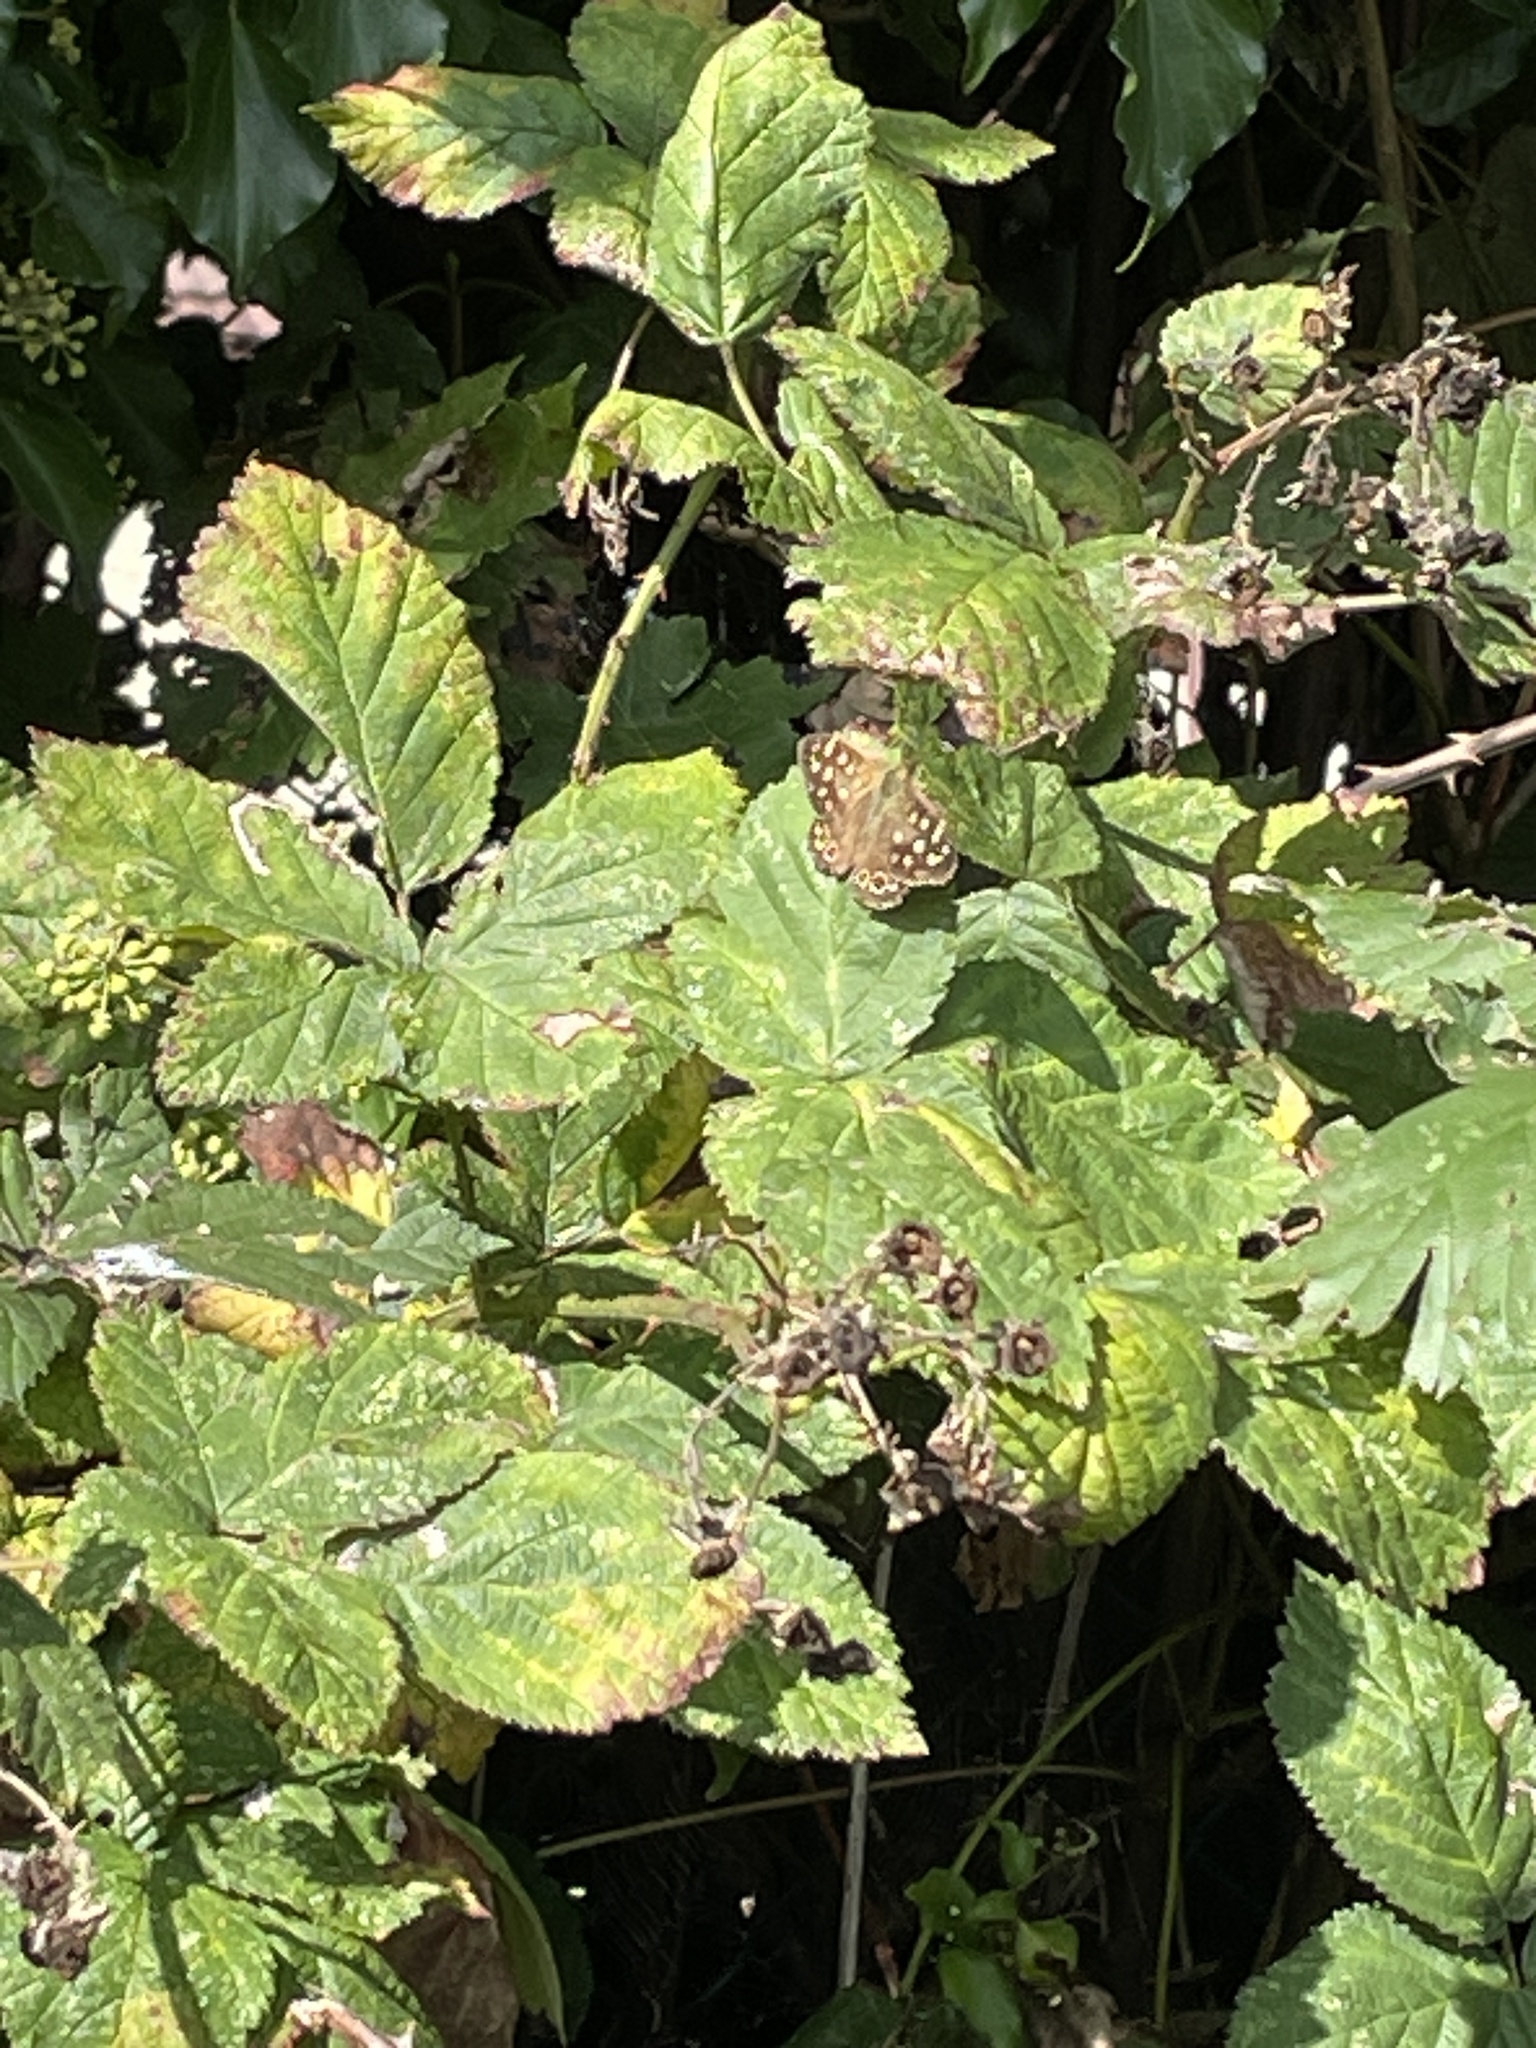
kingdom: Animalia
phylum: Arthropoda
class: Insecta
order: Lepidoptera
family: Nymphalidae
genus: Pararge
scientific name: Pararge aegeria
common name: Speckled wood
